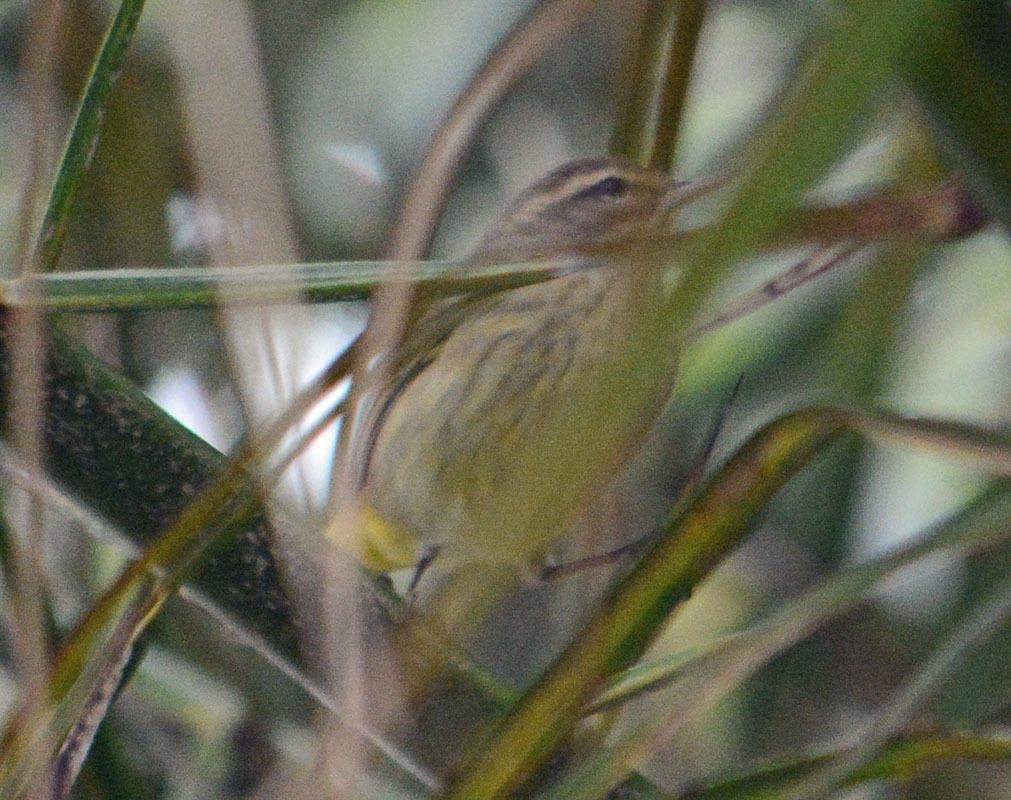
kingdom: Animalia
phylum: Chordata
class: Aves
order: Passeriformes
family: Parulidae
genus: Setophaga
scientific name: Setophaga palmarum
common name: Palm warbler
